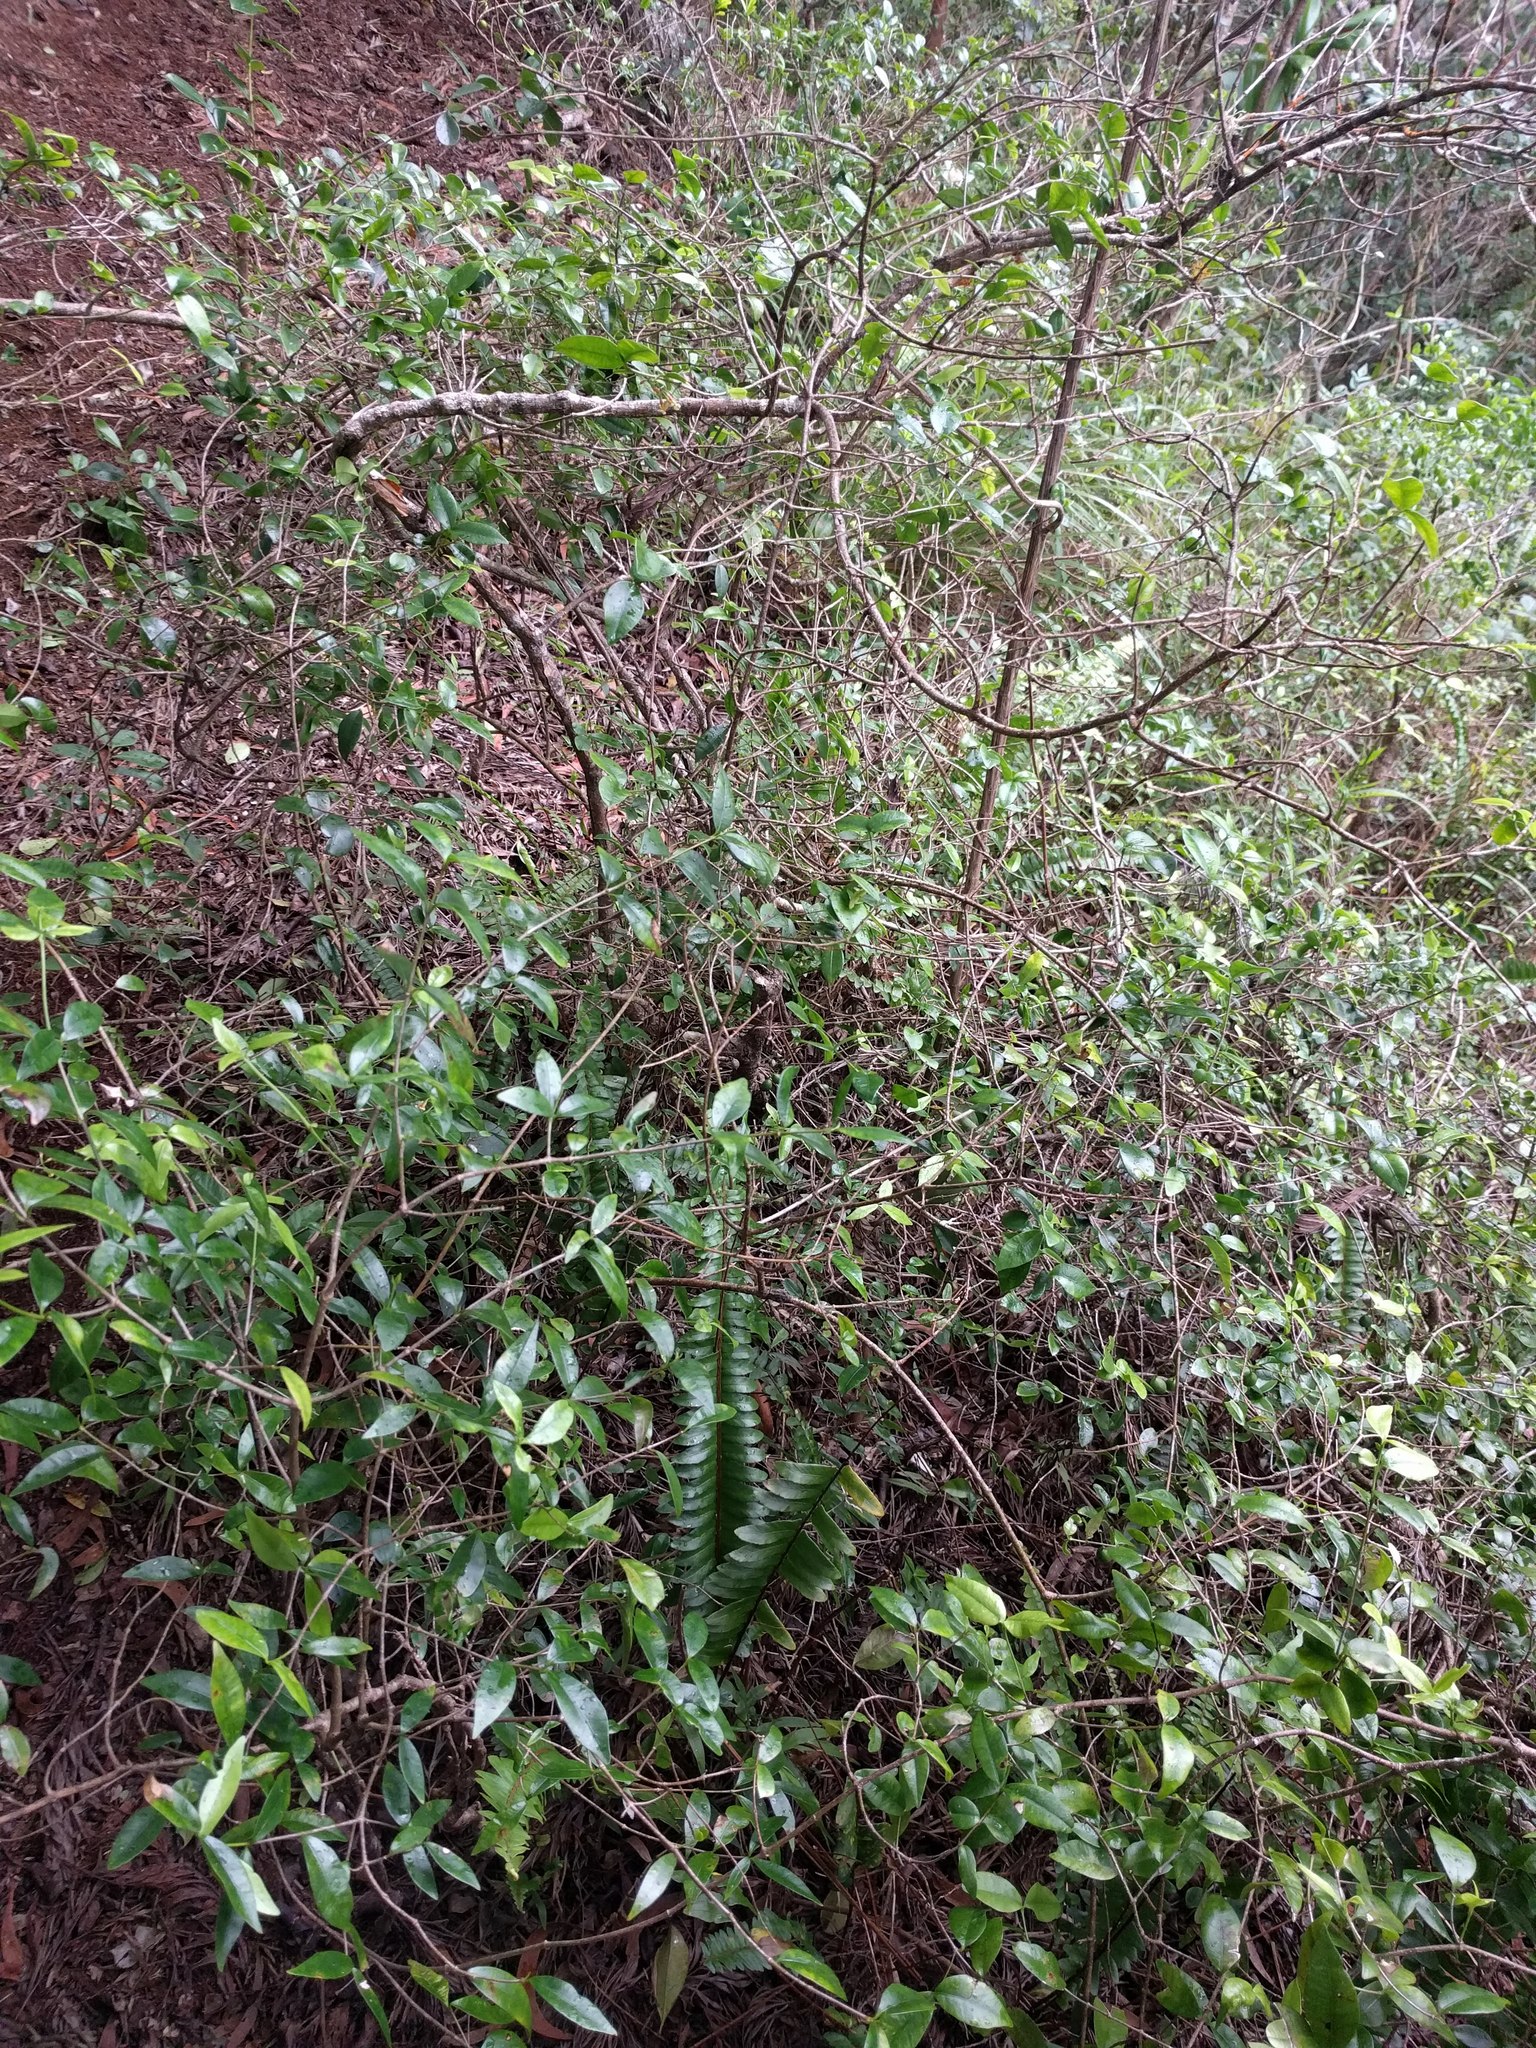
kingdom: Plantae
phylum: Tracheophyta
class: Magnoliopsida
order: Gentianales
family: Apocynaceae
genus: Alyxia
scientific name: Alyxia stellata
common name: Maile
